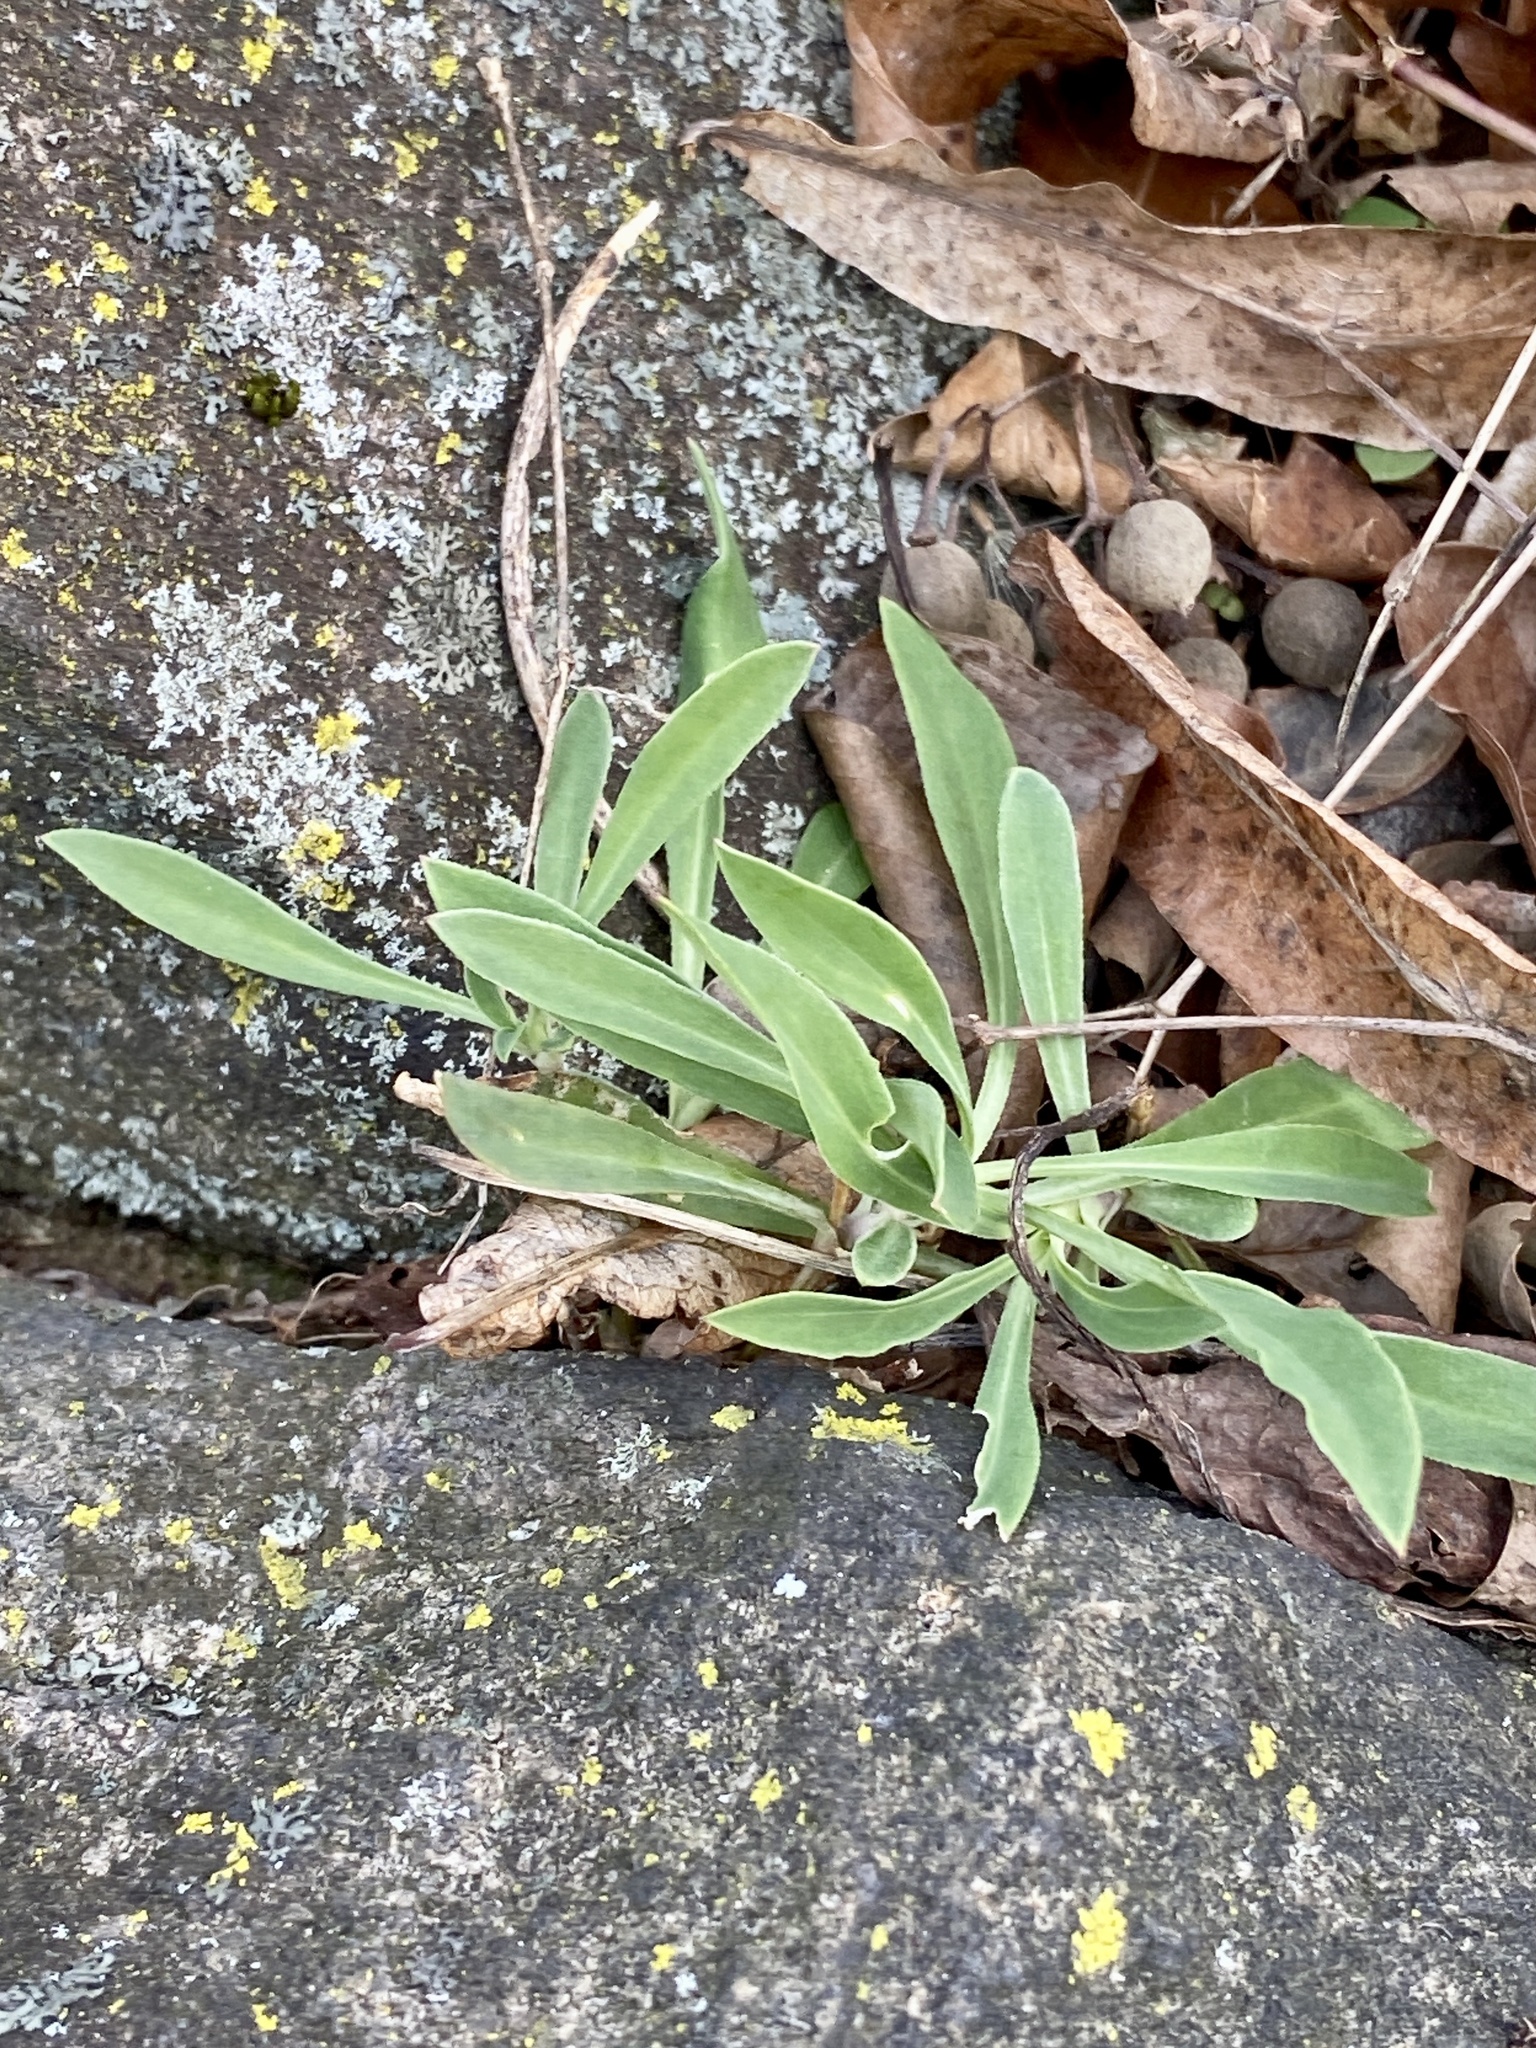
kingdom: Plantae
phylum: Tracheophyta
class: Magnoliopsida
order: Caryophyllales
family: Caryophyllaceae
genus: Silene
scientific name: Silene vulgaris
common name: Bladder campion
